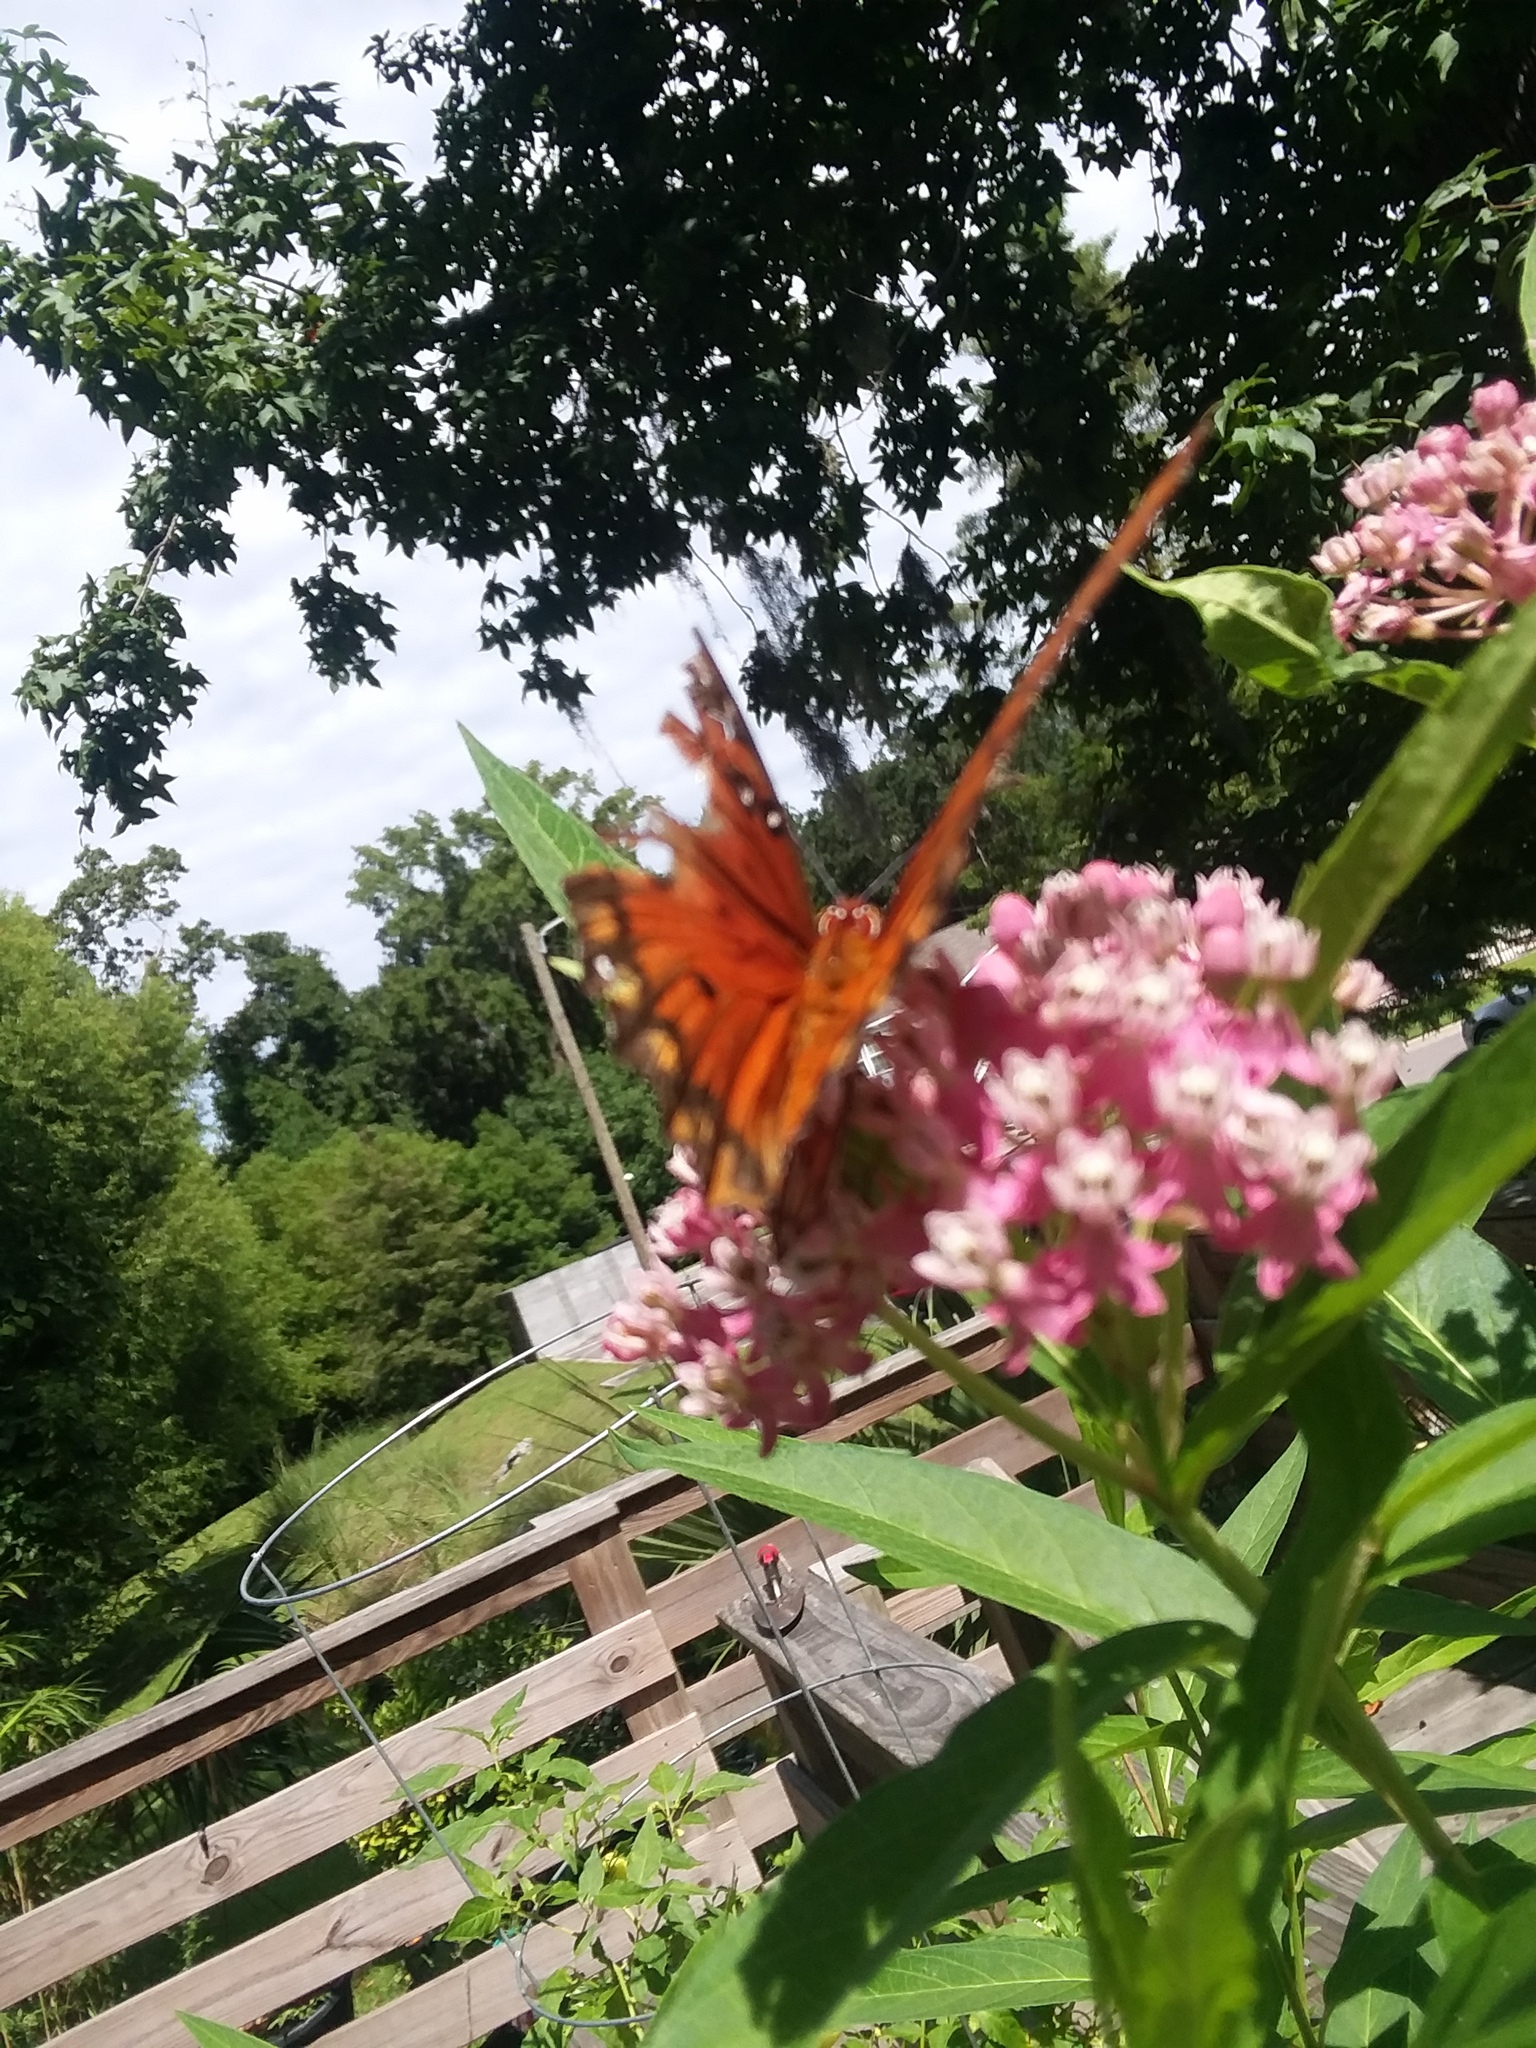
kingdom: Animalia
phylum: Arthropoda
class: Insecta
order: Lepidoptera
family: Nymphalidae
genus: Dione
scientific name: Dione vanillae
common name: Gulf fritillary
